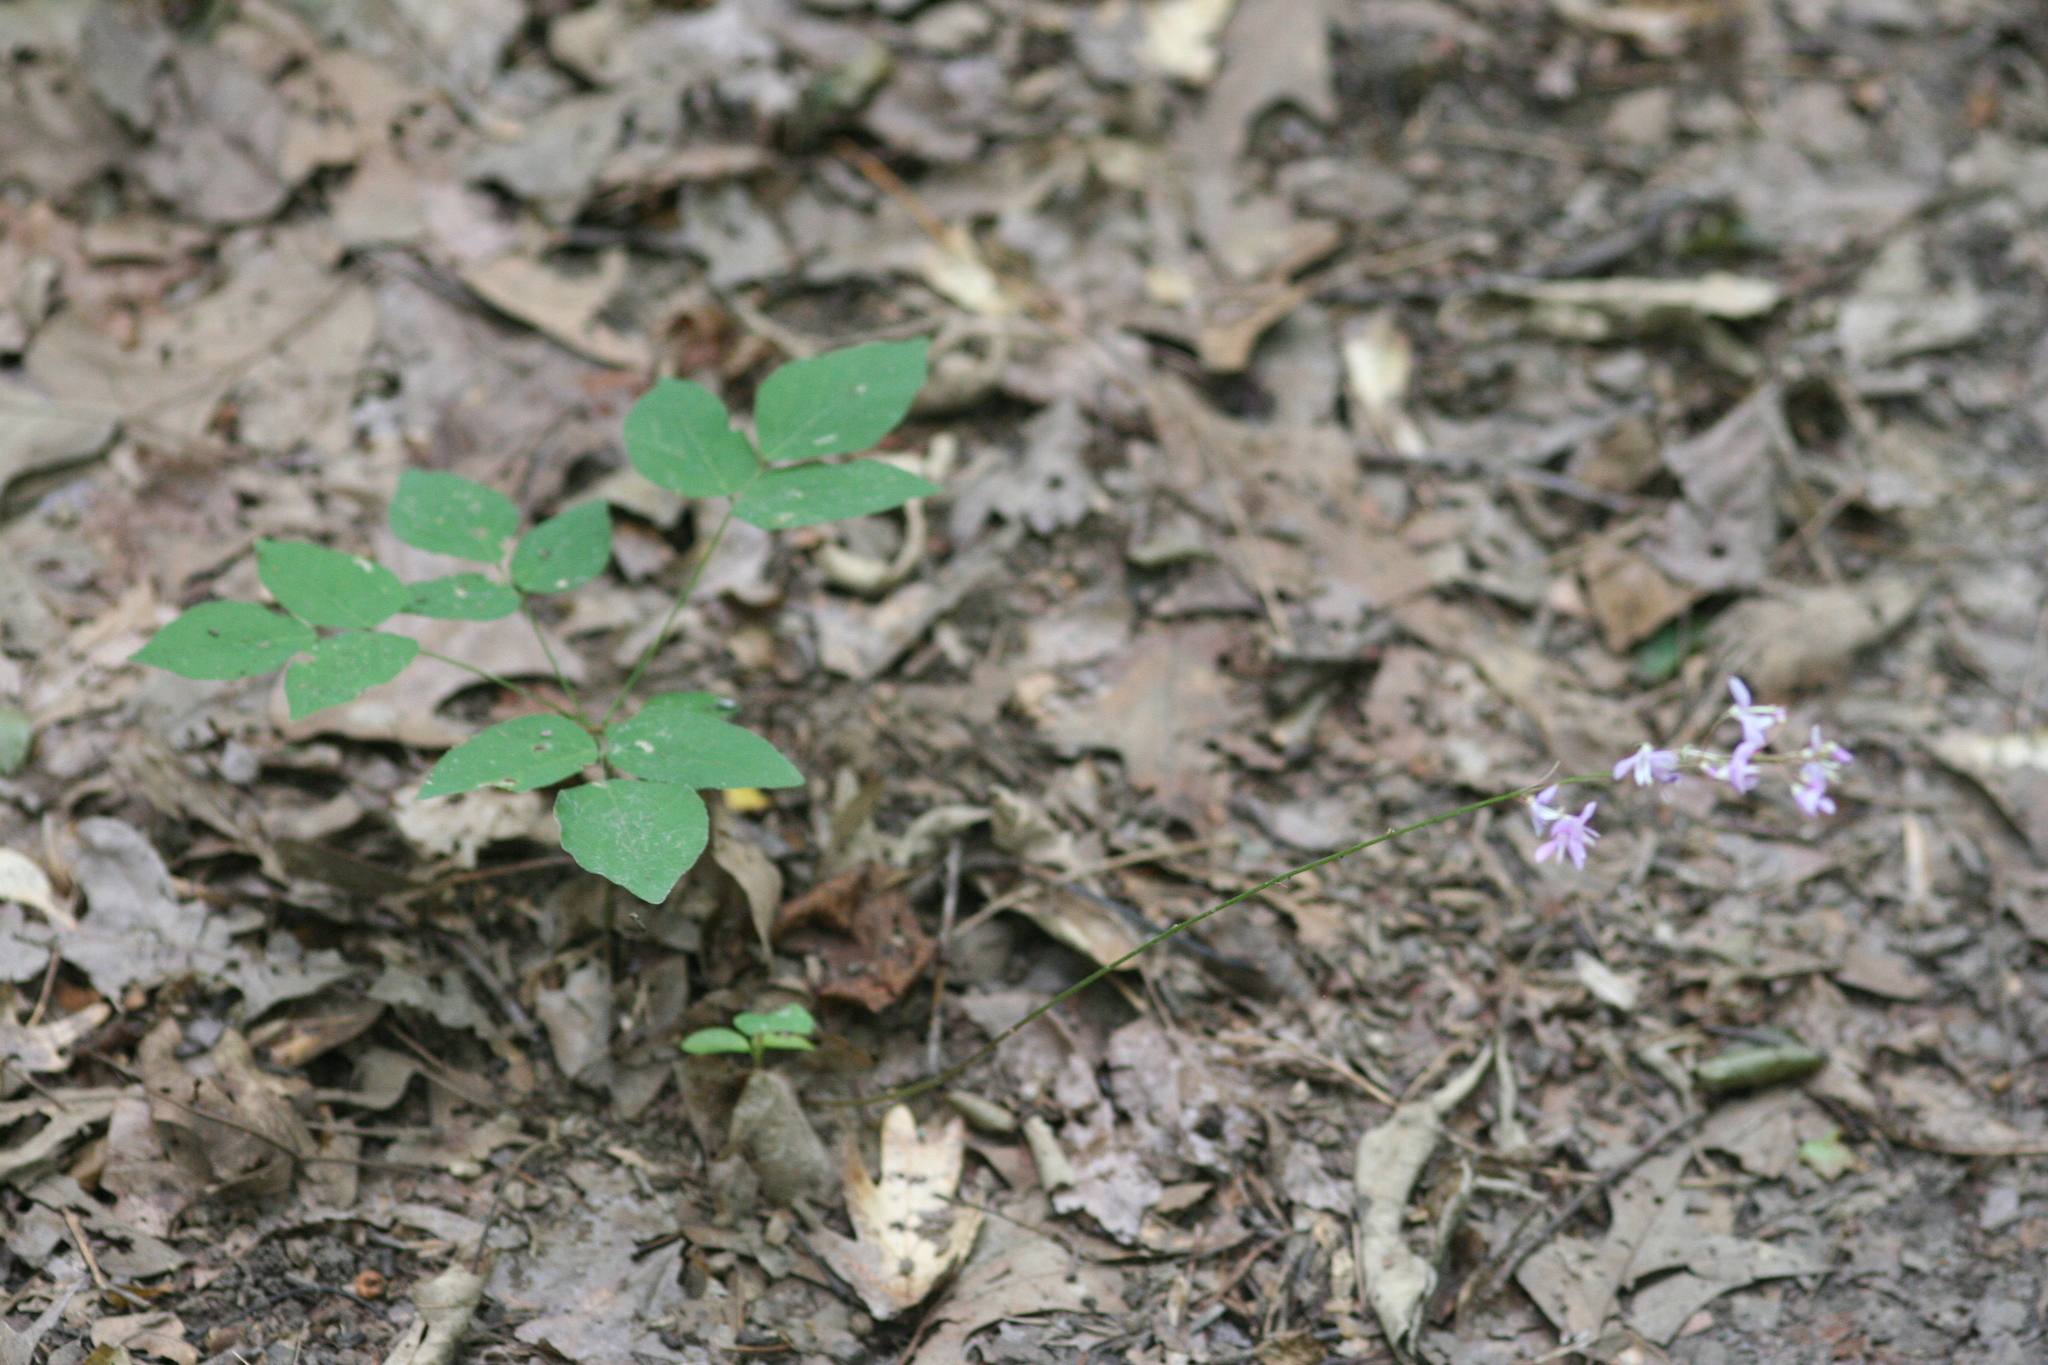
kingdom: Plantae
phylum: Tracheophyta
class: Magnoliopsida
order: Fabales
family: Fabaceae
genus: Hylodesmum
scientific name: Hylodesmum nudiflorum
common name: Bare-stemmed tick-trefoil
